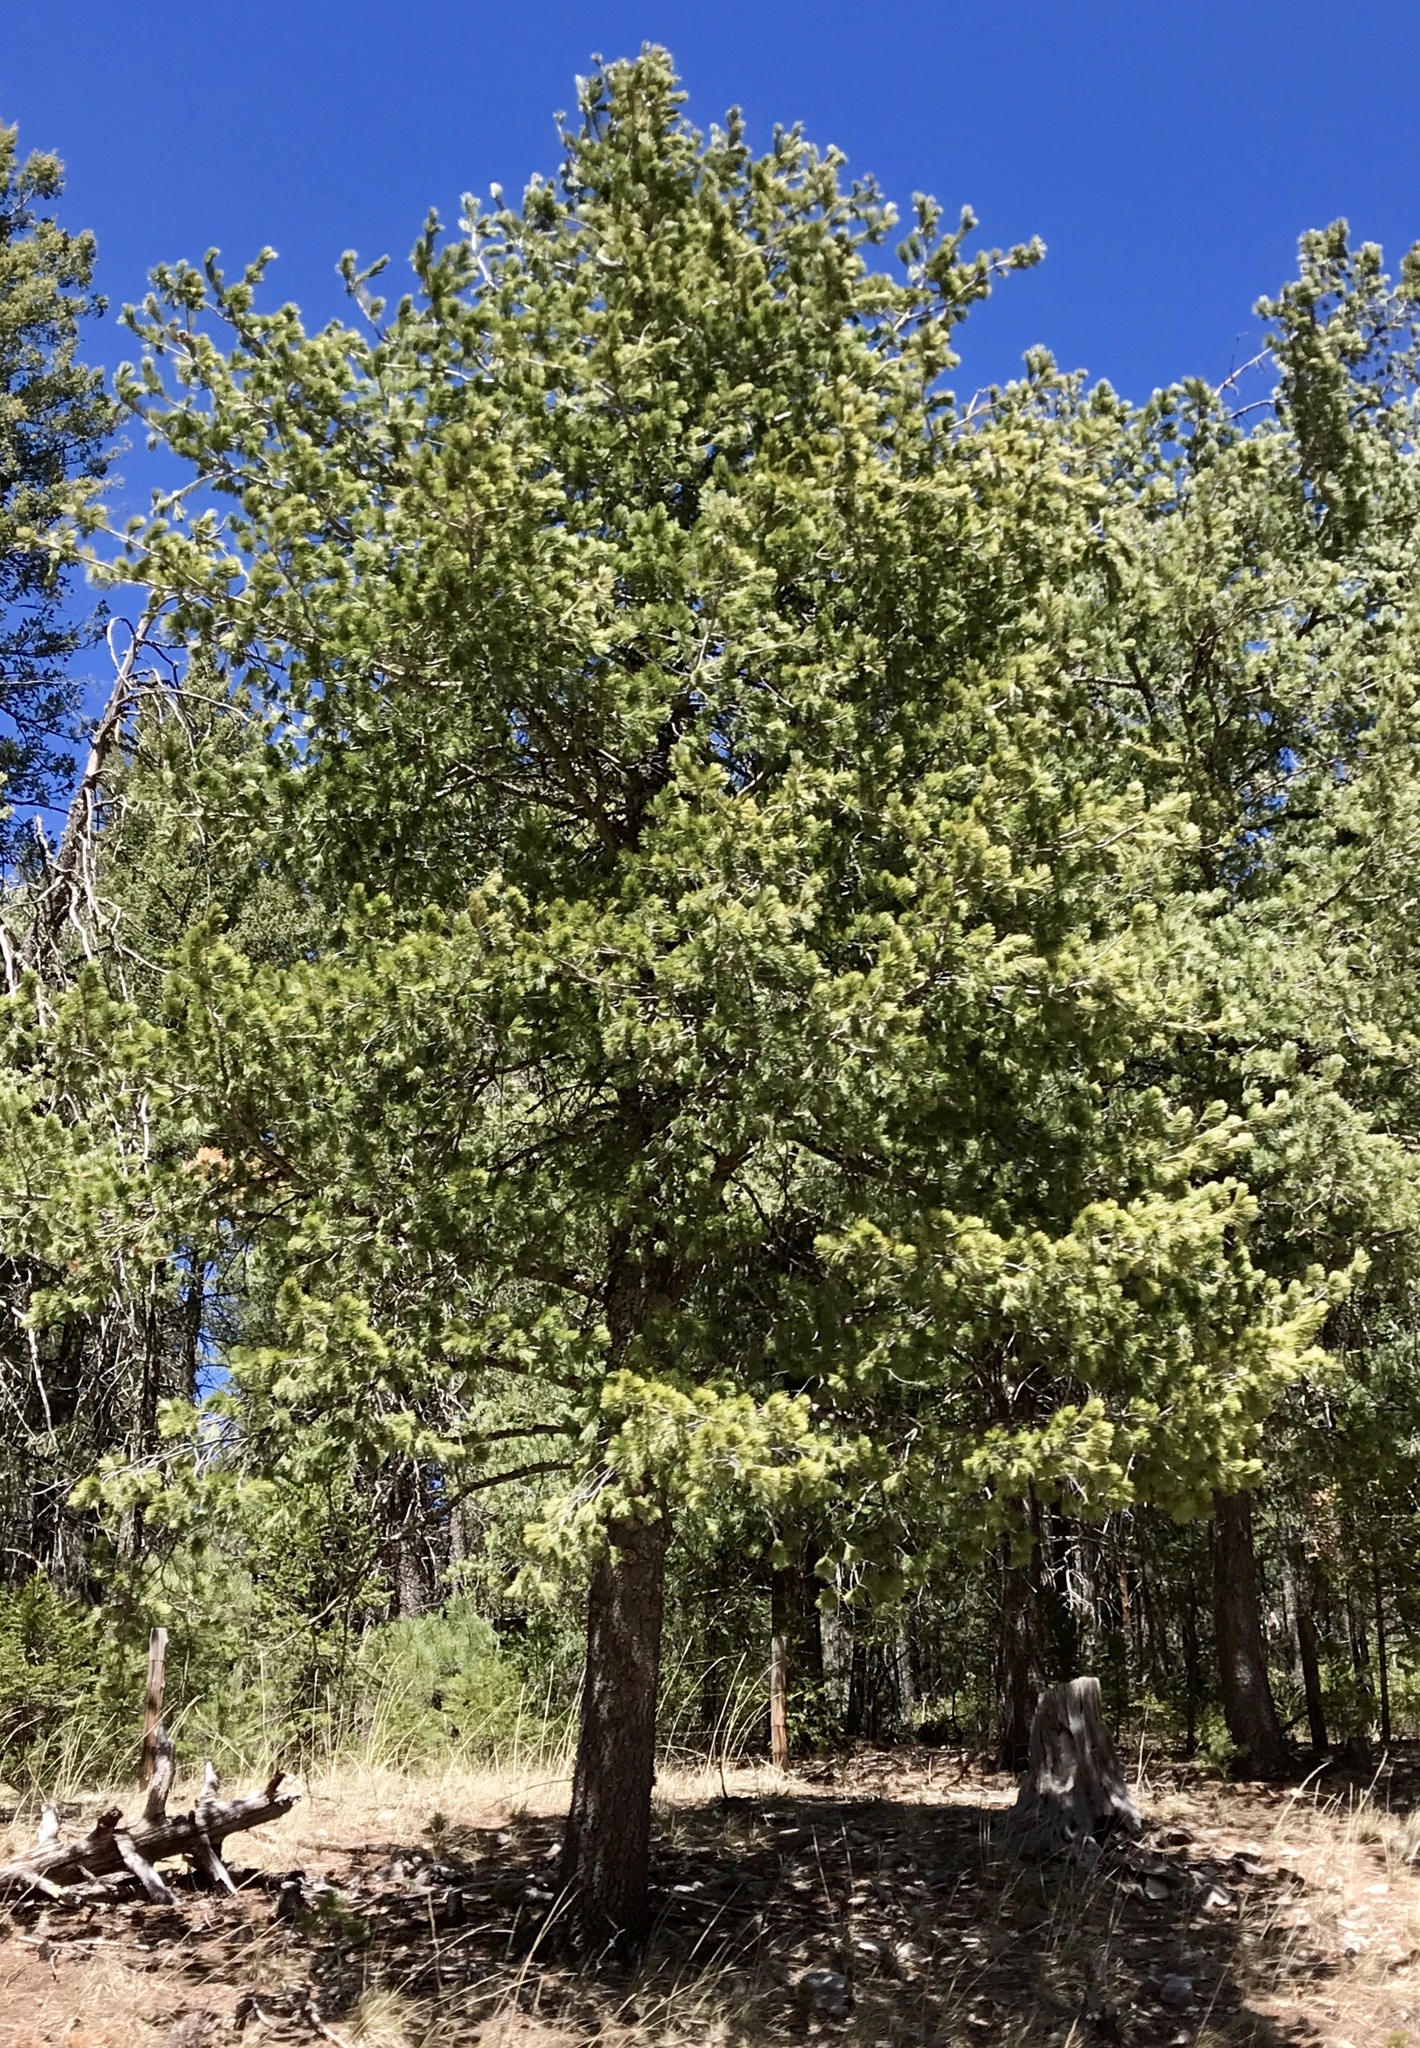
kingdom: Plantae
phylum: Tracheophyta
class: Pinopsida
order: Pinales
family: Pinaceae
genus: Pinus
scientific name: Pinus strobiformis
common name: Southwestern white pine
